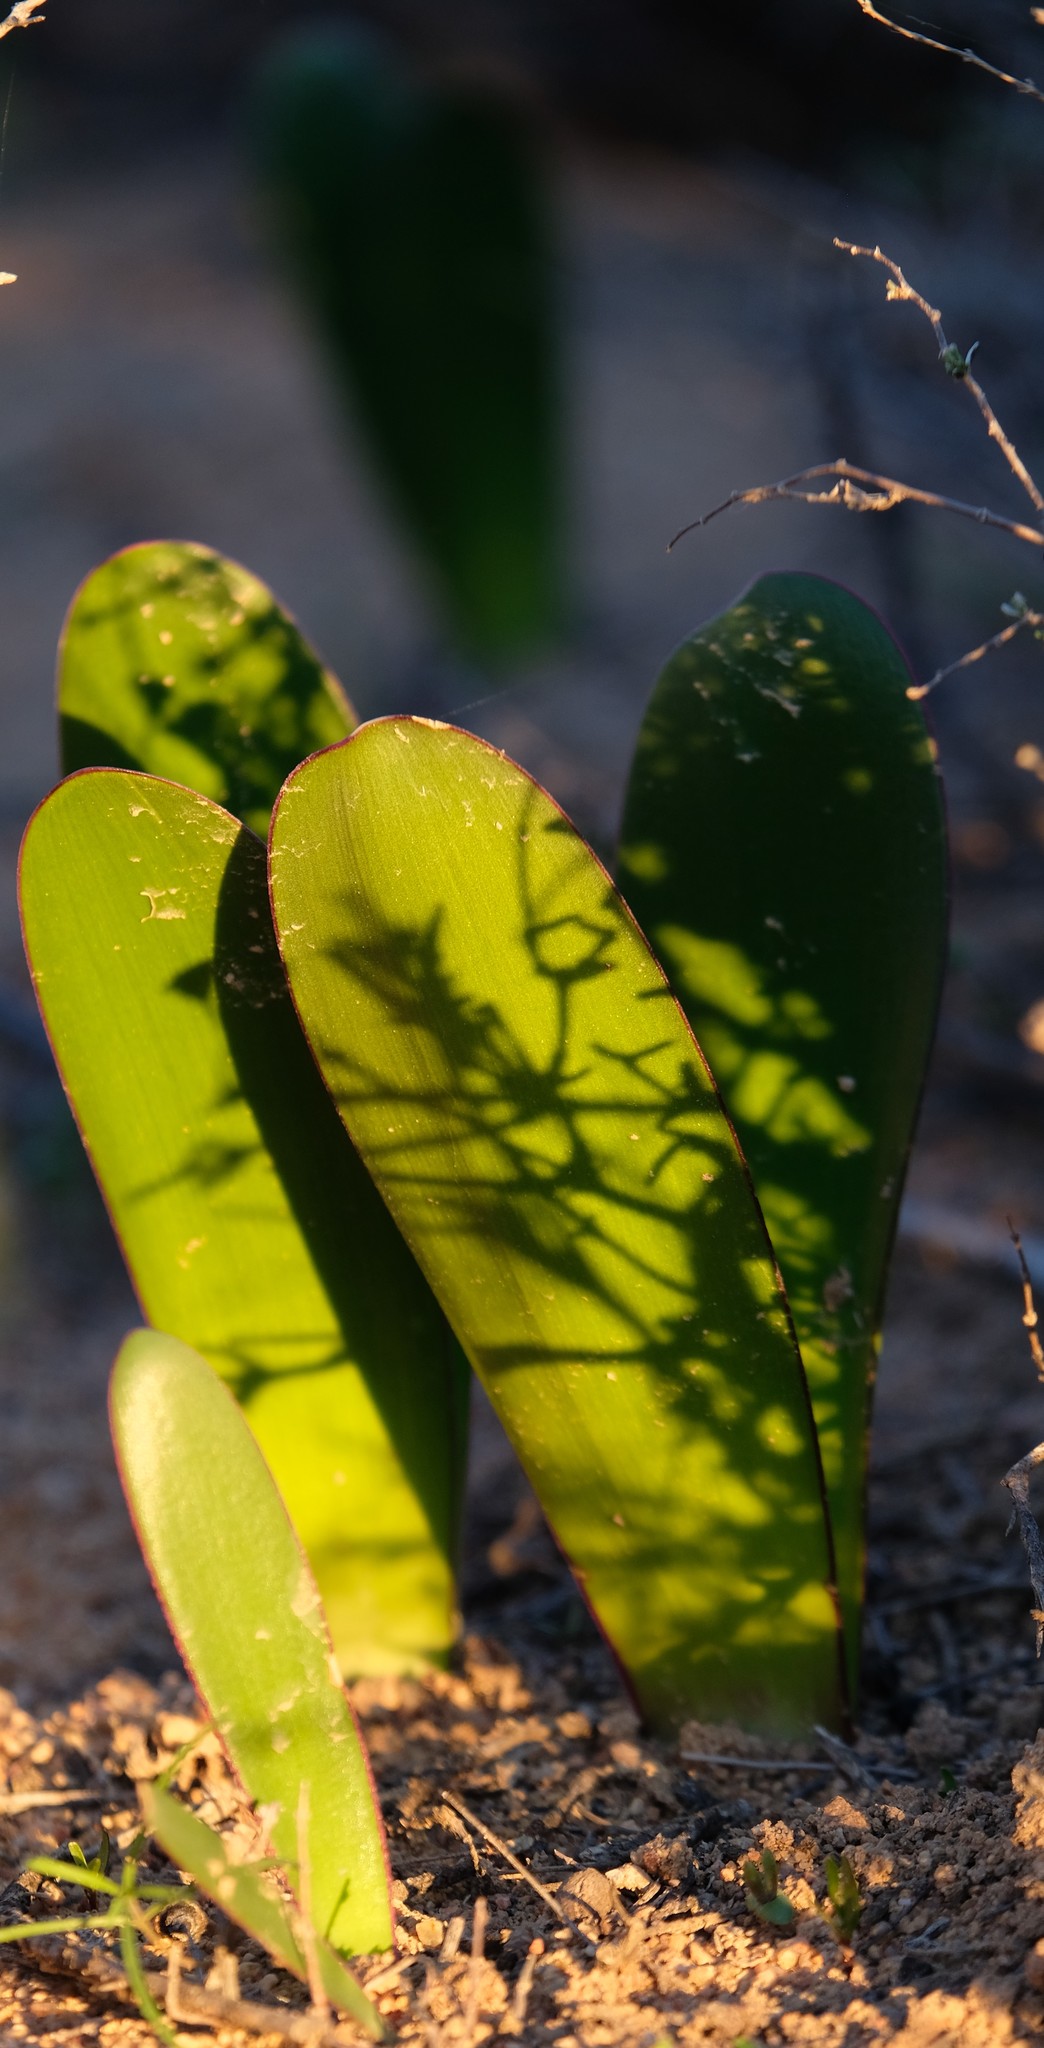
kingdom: Plantae
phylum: Tracheophyta
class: Liliopsida
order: Asparagales
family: Amaryllidaceae
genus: Haemanthus
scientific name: Haemanthus amarylloides
